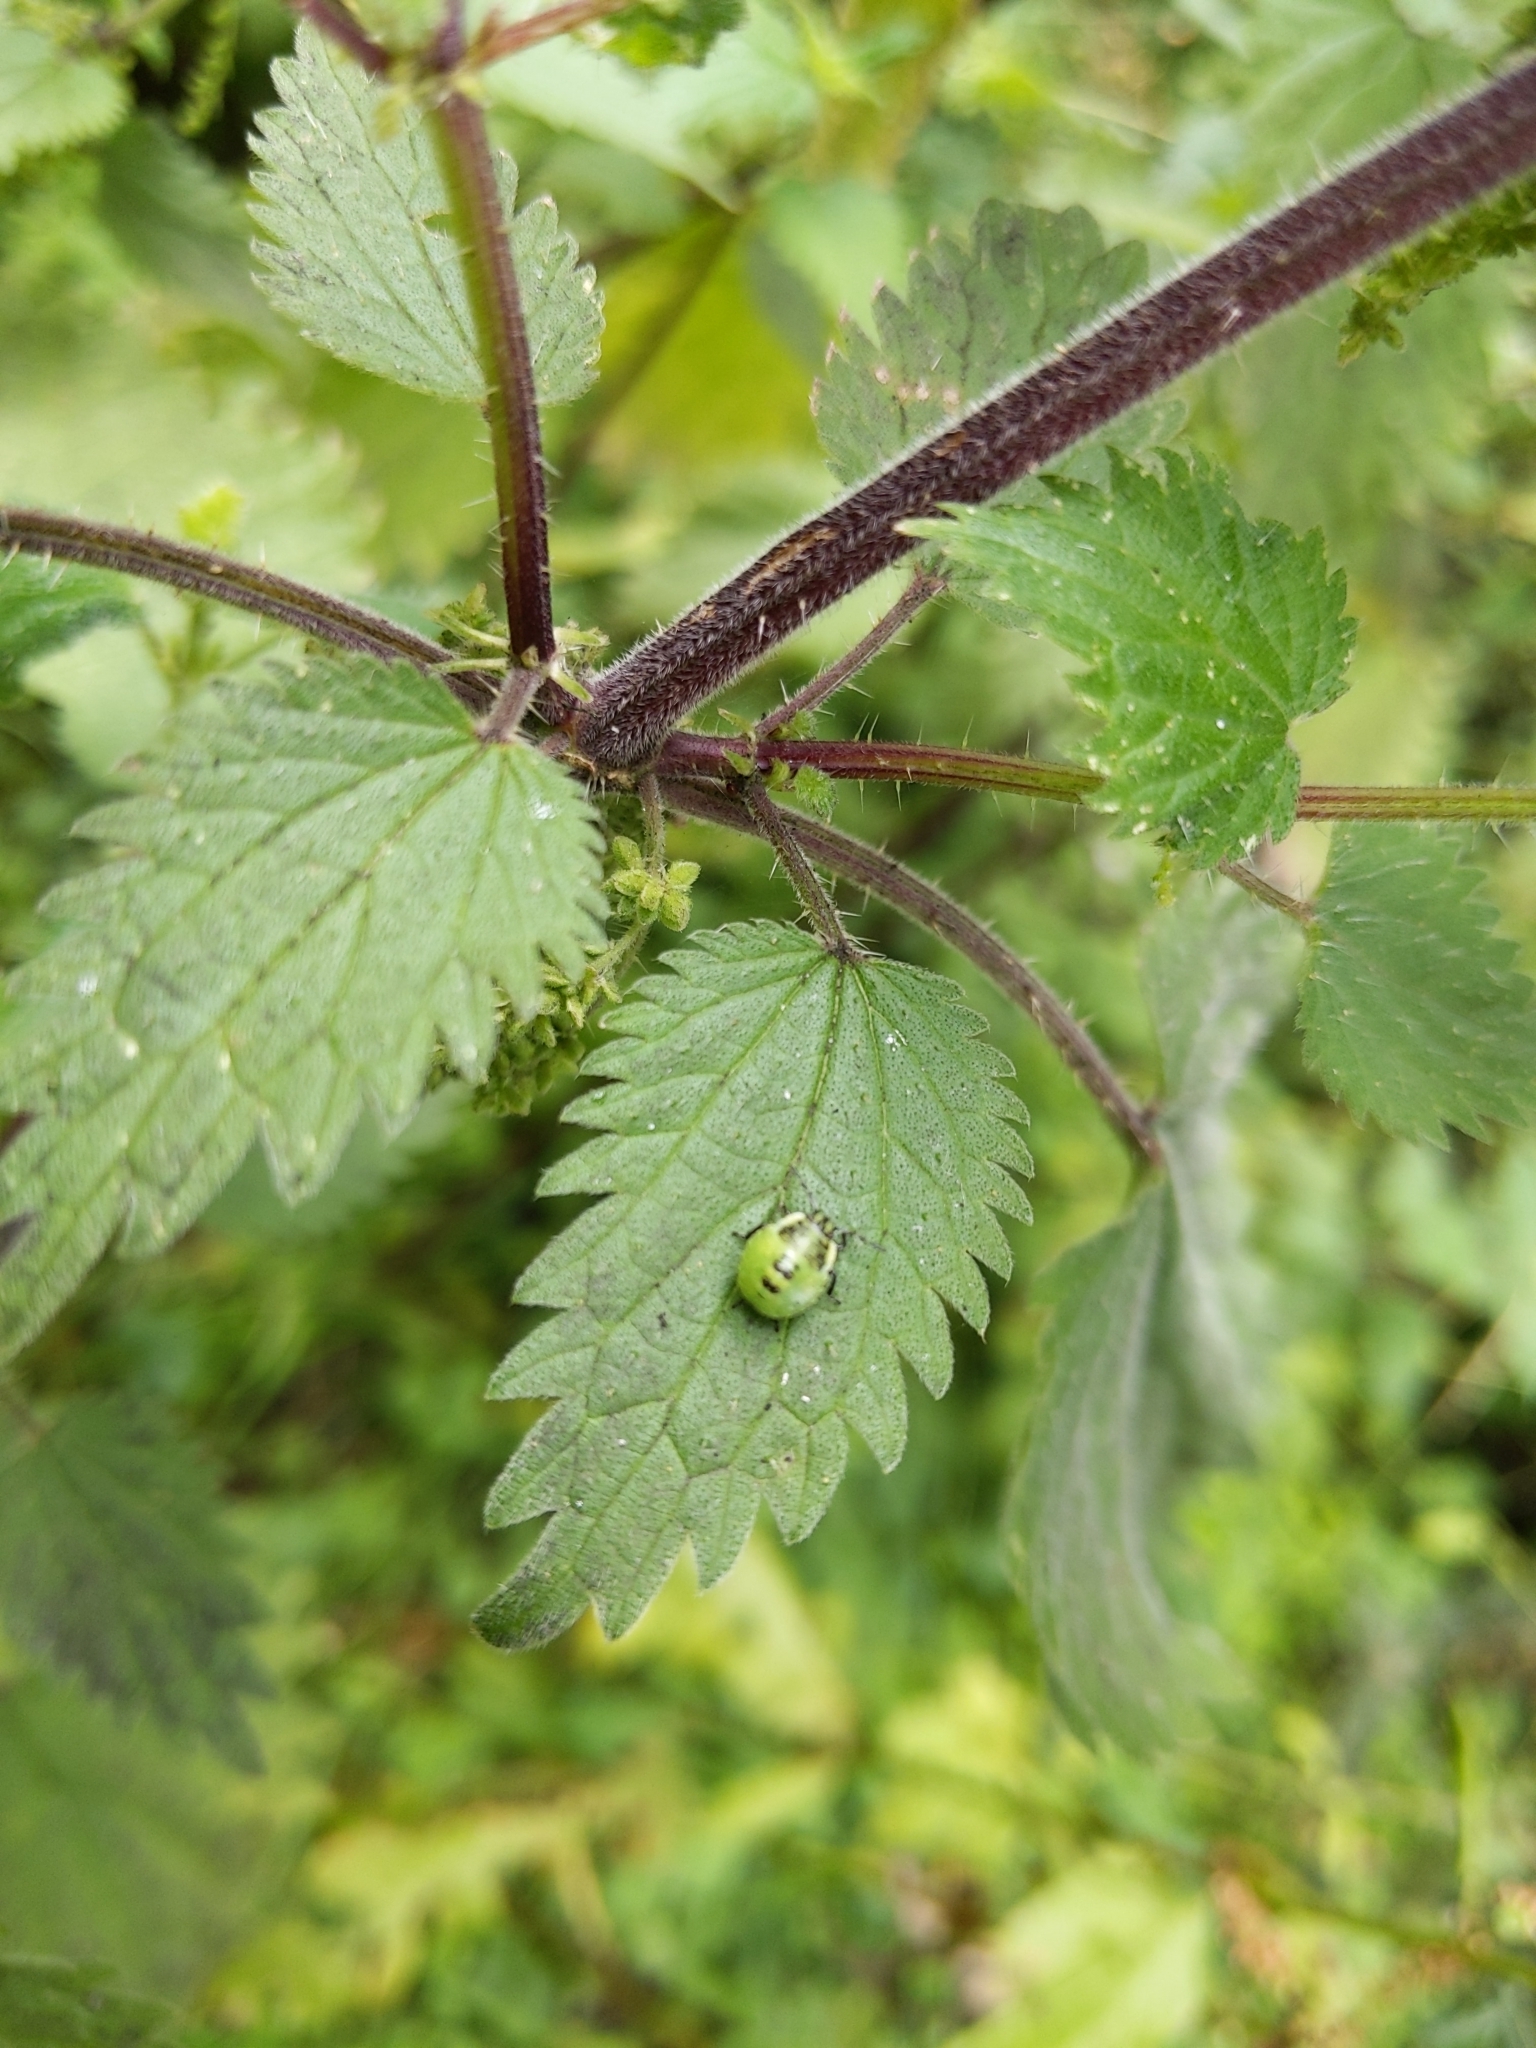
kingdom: Animalia
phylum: Arthropoda
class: Insecta
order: Hemiptera
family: Pentatomidae
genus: Palomena
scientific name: Palomena prasina
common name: Green shieldbug
